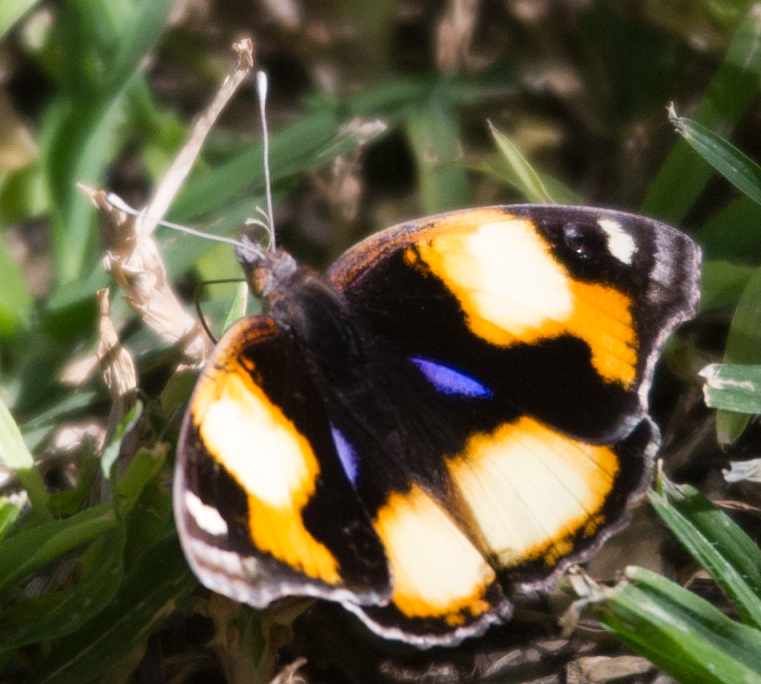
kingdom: Animalia
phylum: Arthropoda
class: Insecta
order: Lepidoptera
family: Nymphalidae
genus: Junonia
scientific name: Junonia hierta
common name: Yellow pansy
